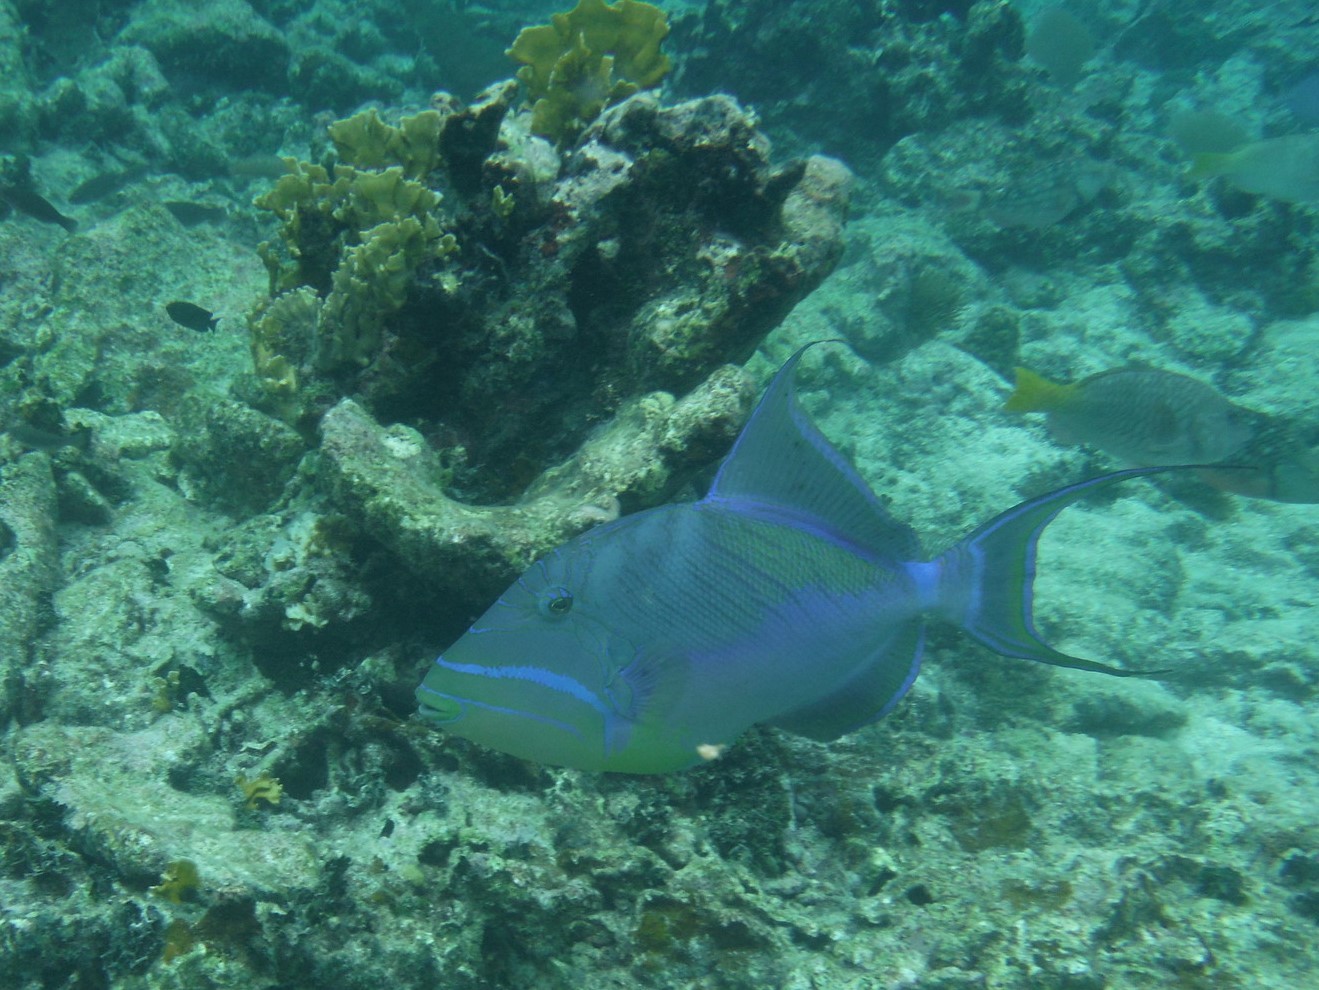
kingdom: Animalia
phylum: Chordata
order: Tetraodontiformes
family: Balistidae
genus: Balistes
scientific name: Balistes vetula
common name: Queen triggerfish
